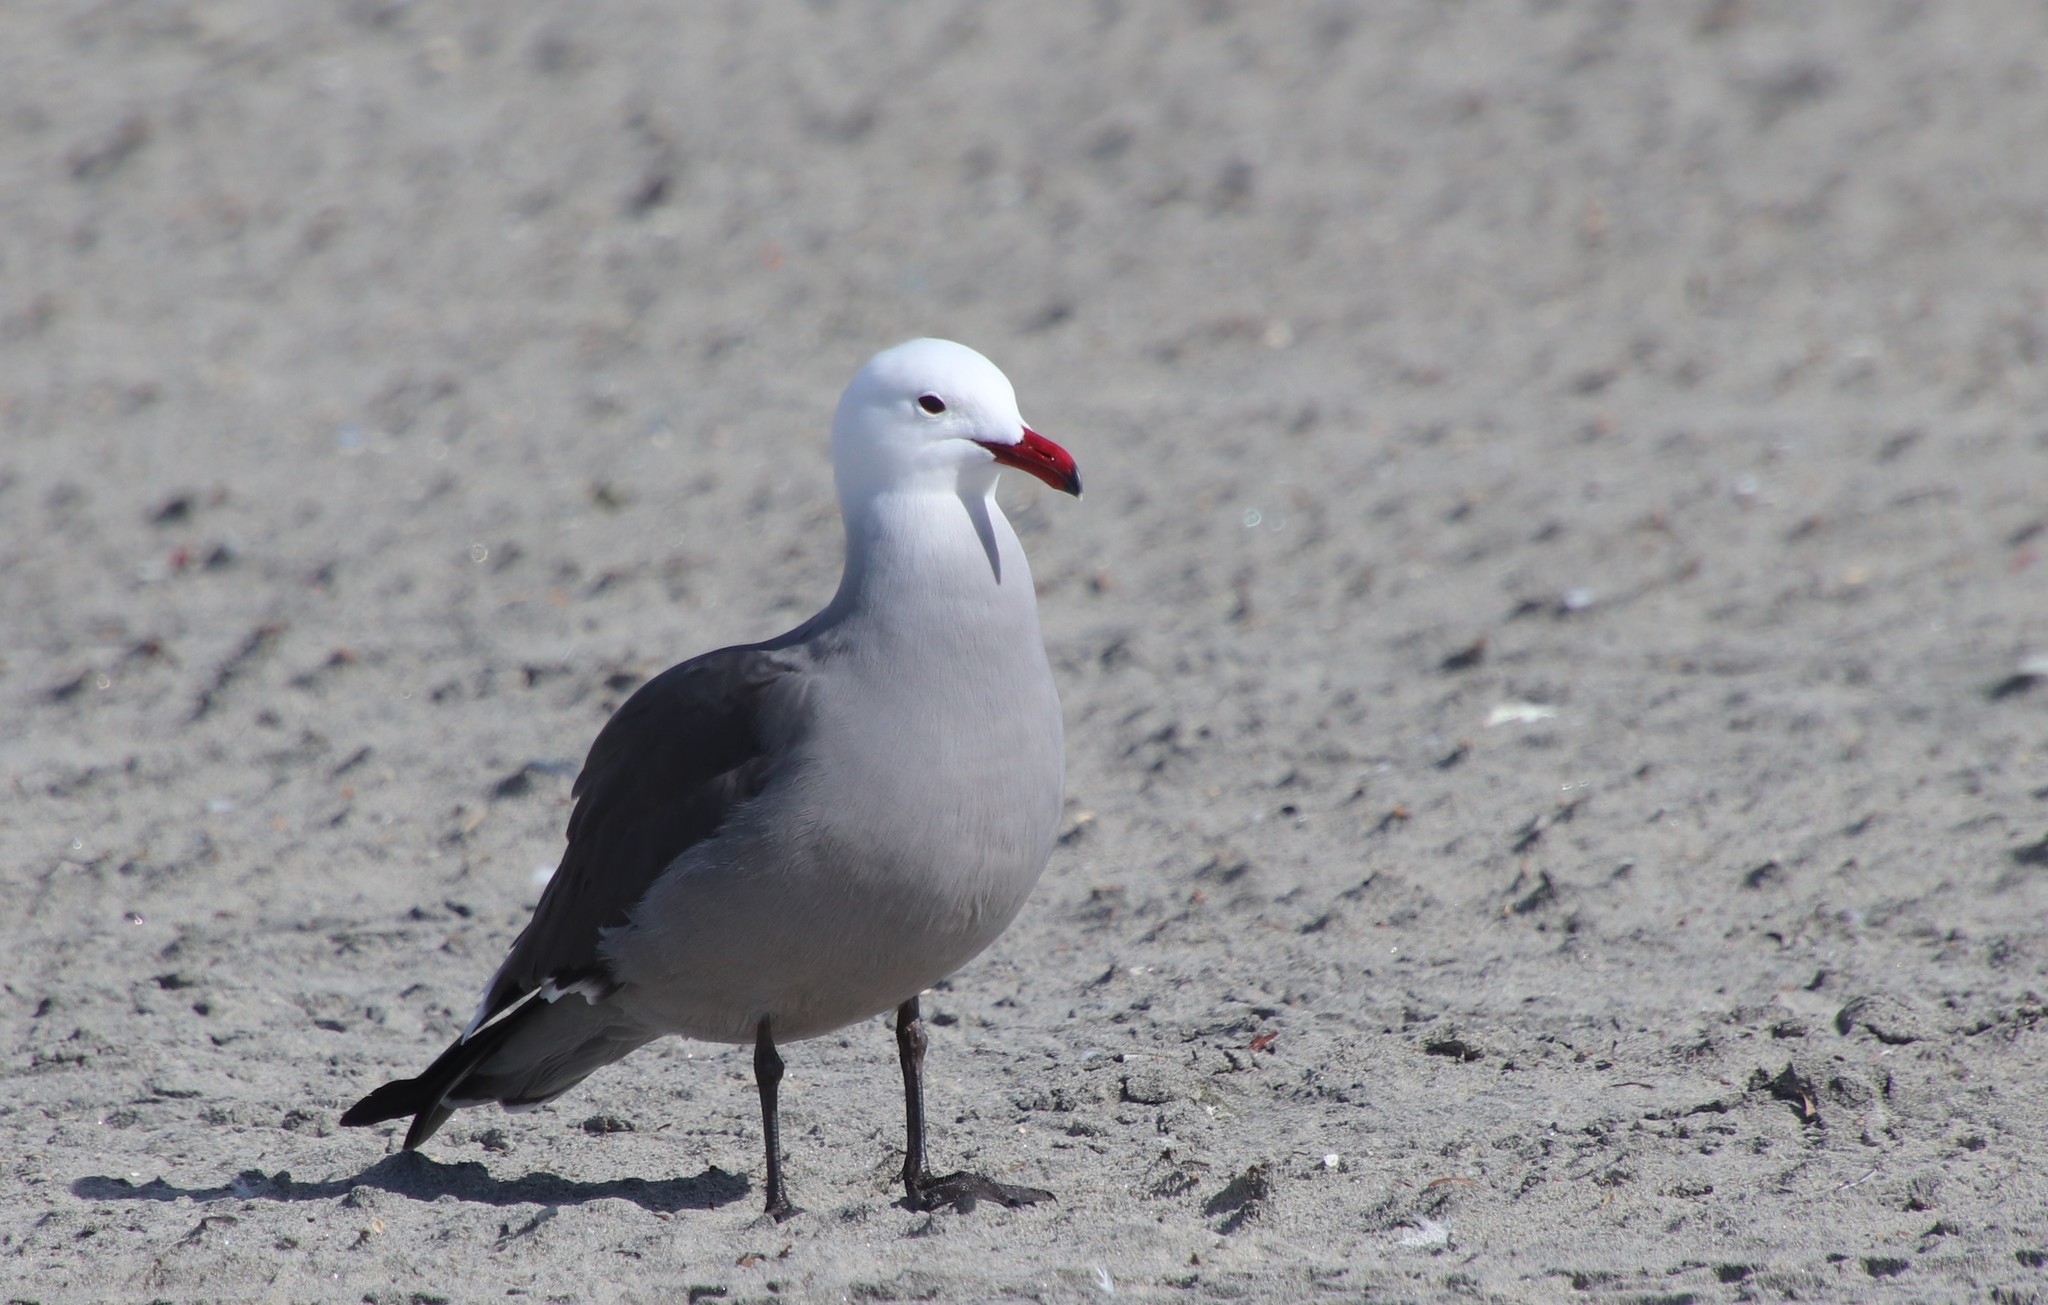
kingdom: Animalia
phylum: Chordata
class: Aves
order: Charadriiformes
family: Laridae
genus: Larus
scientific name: Larus heermanni
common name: Heermann's gull
